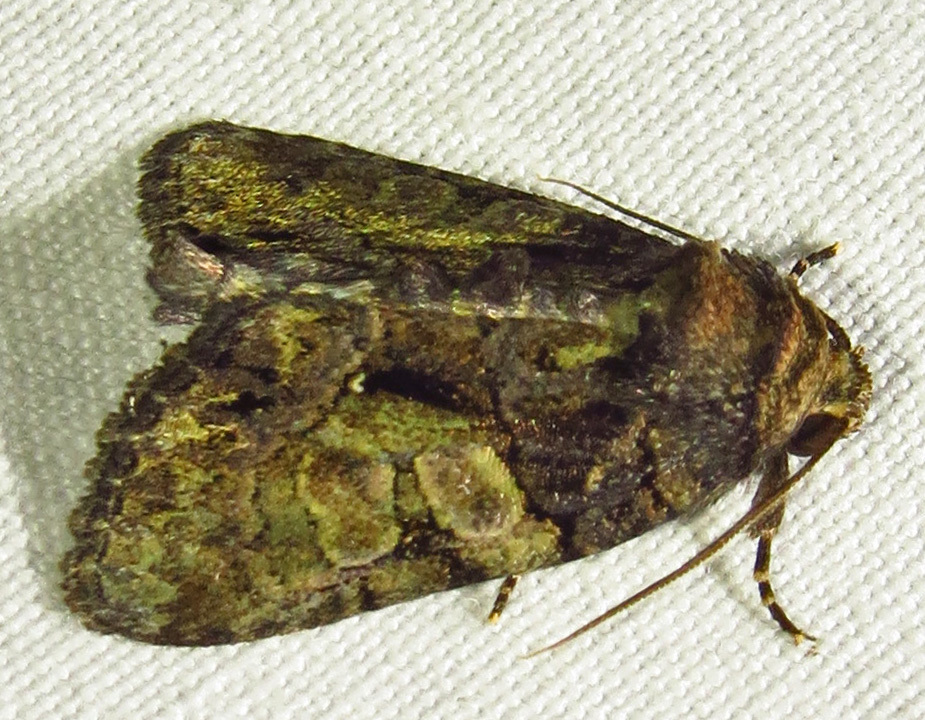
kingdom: Animalia
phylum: Arthropoda
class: Insecta
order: Lepidoptera
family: Noctuidae
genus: Chytonix
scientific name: Chytonix palliatricula
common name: Cloaked marvel
